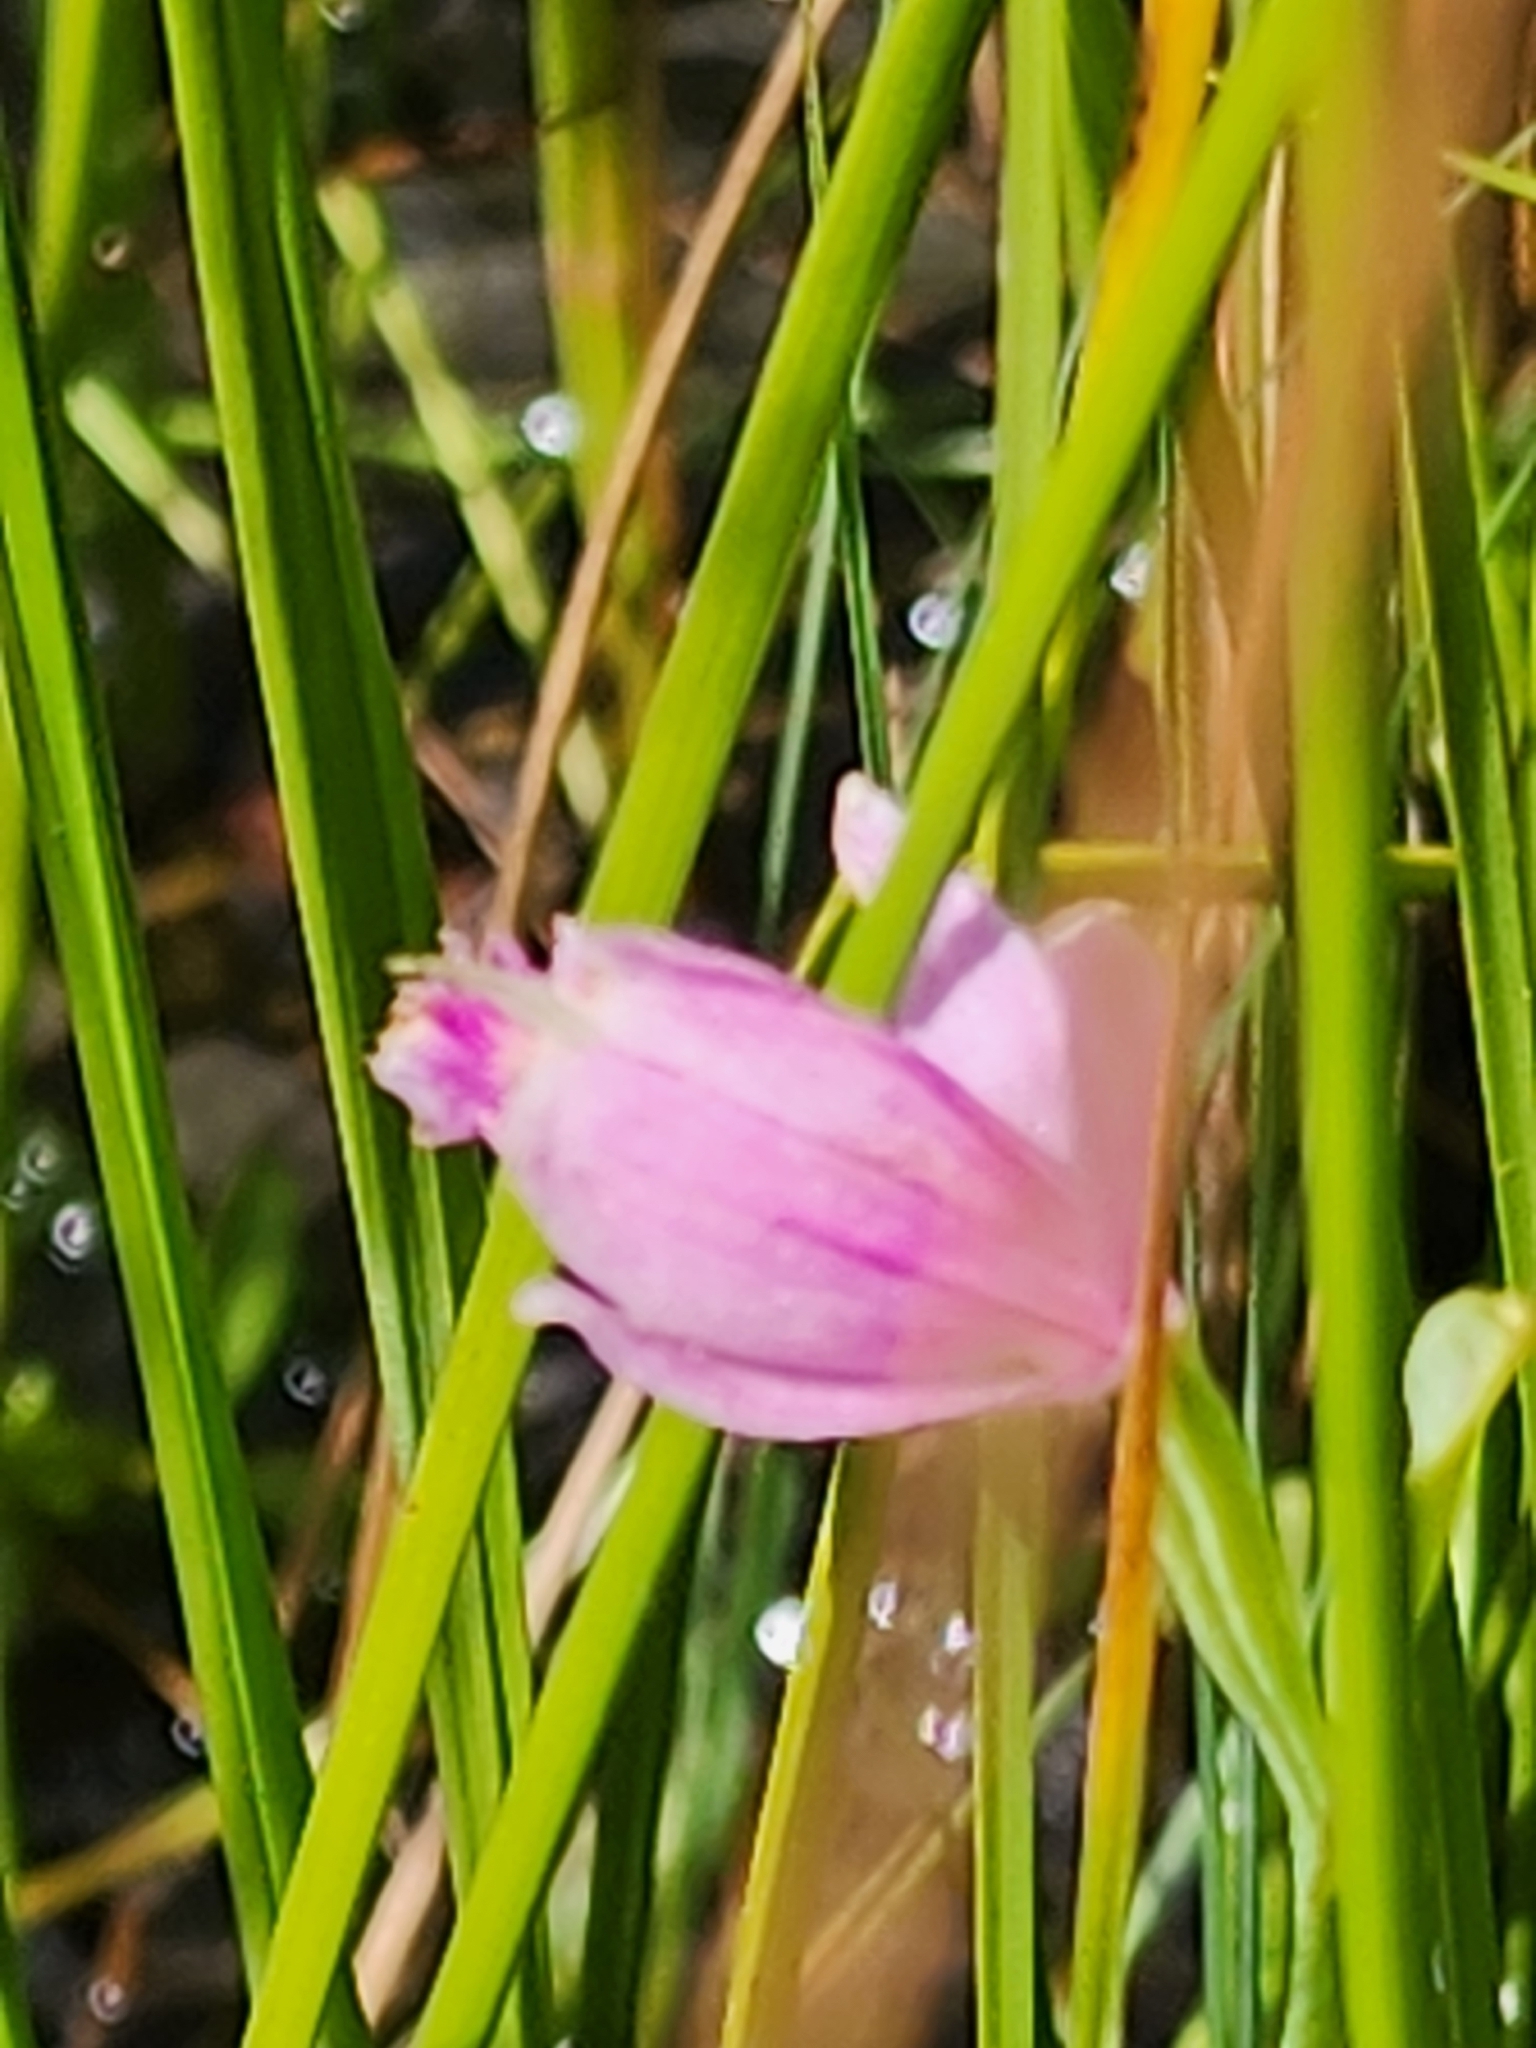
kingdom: Plantae
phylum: Tracheophyta
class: Liliopsida
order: Asparagales
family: Orchidaceae
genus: Pogonia
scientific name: Pogonia ophioglossoides
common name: Rose pogonia
